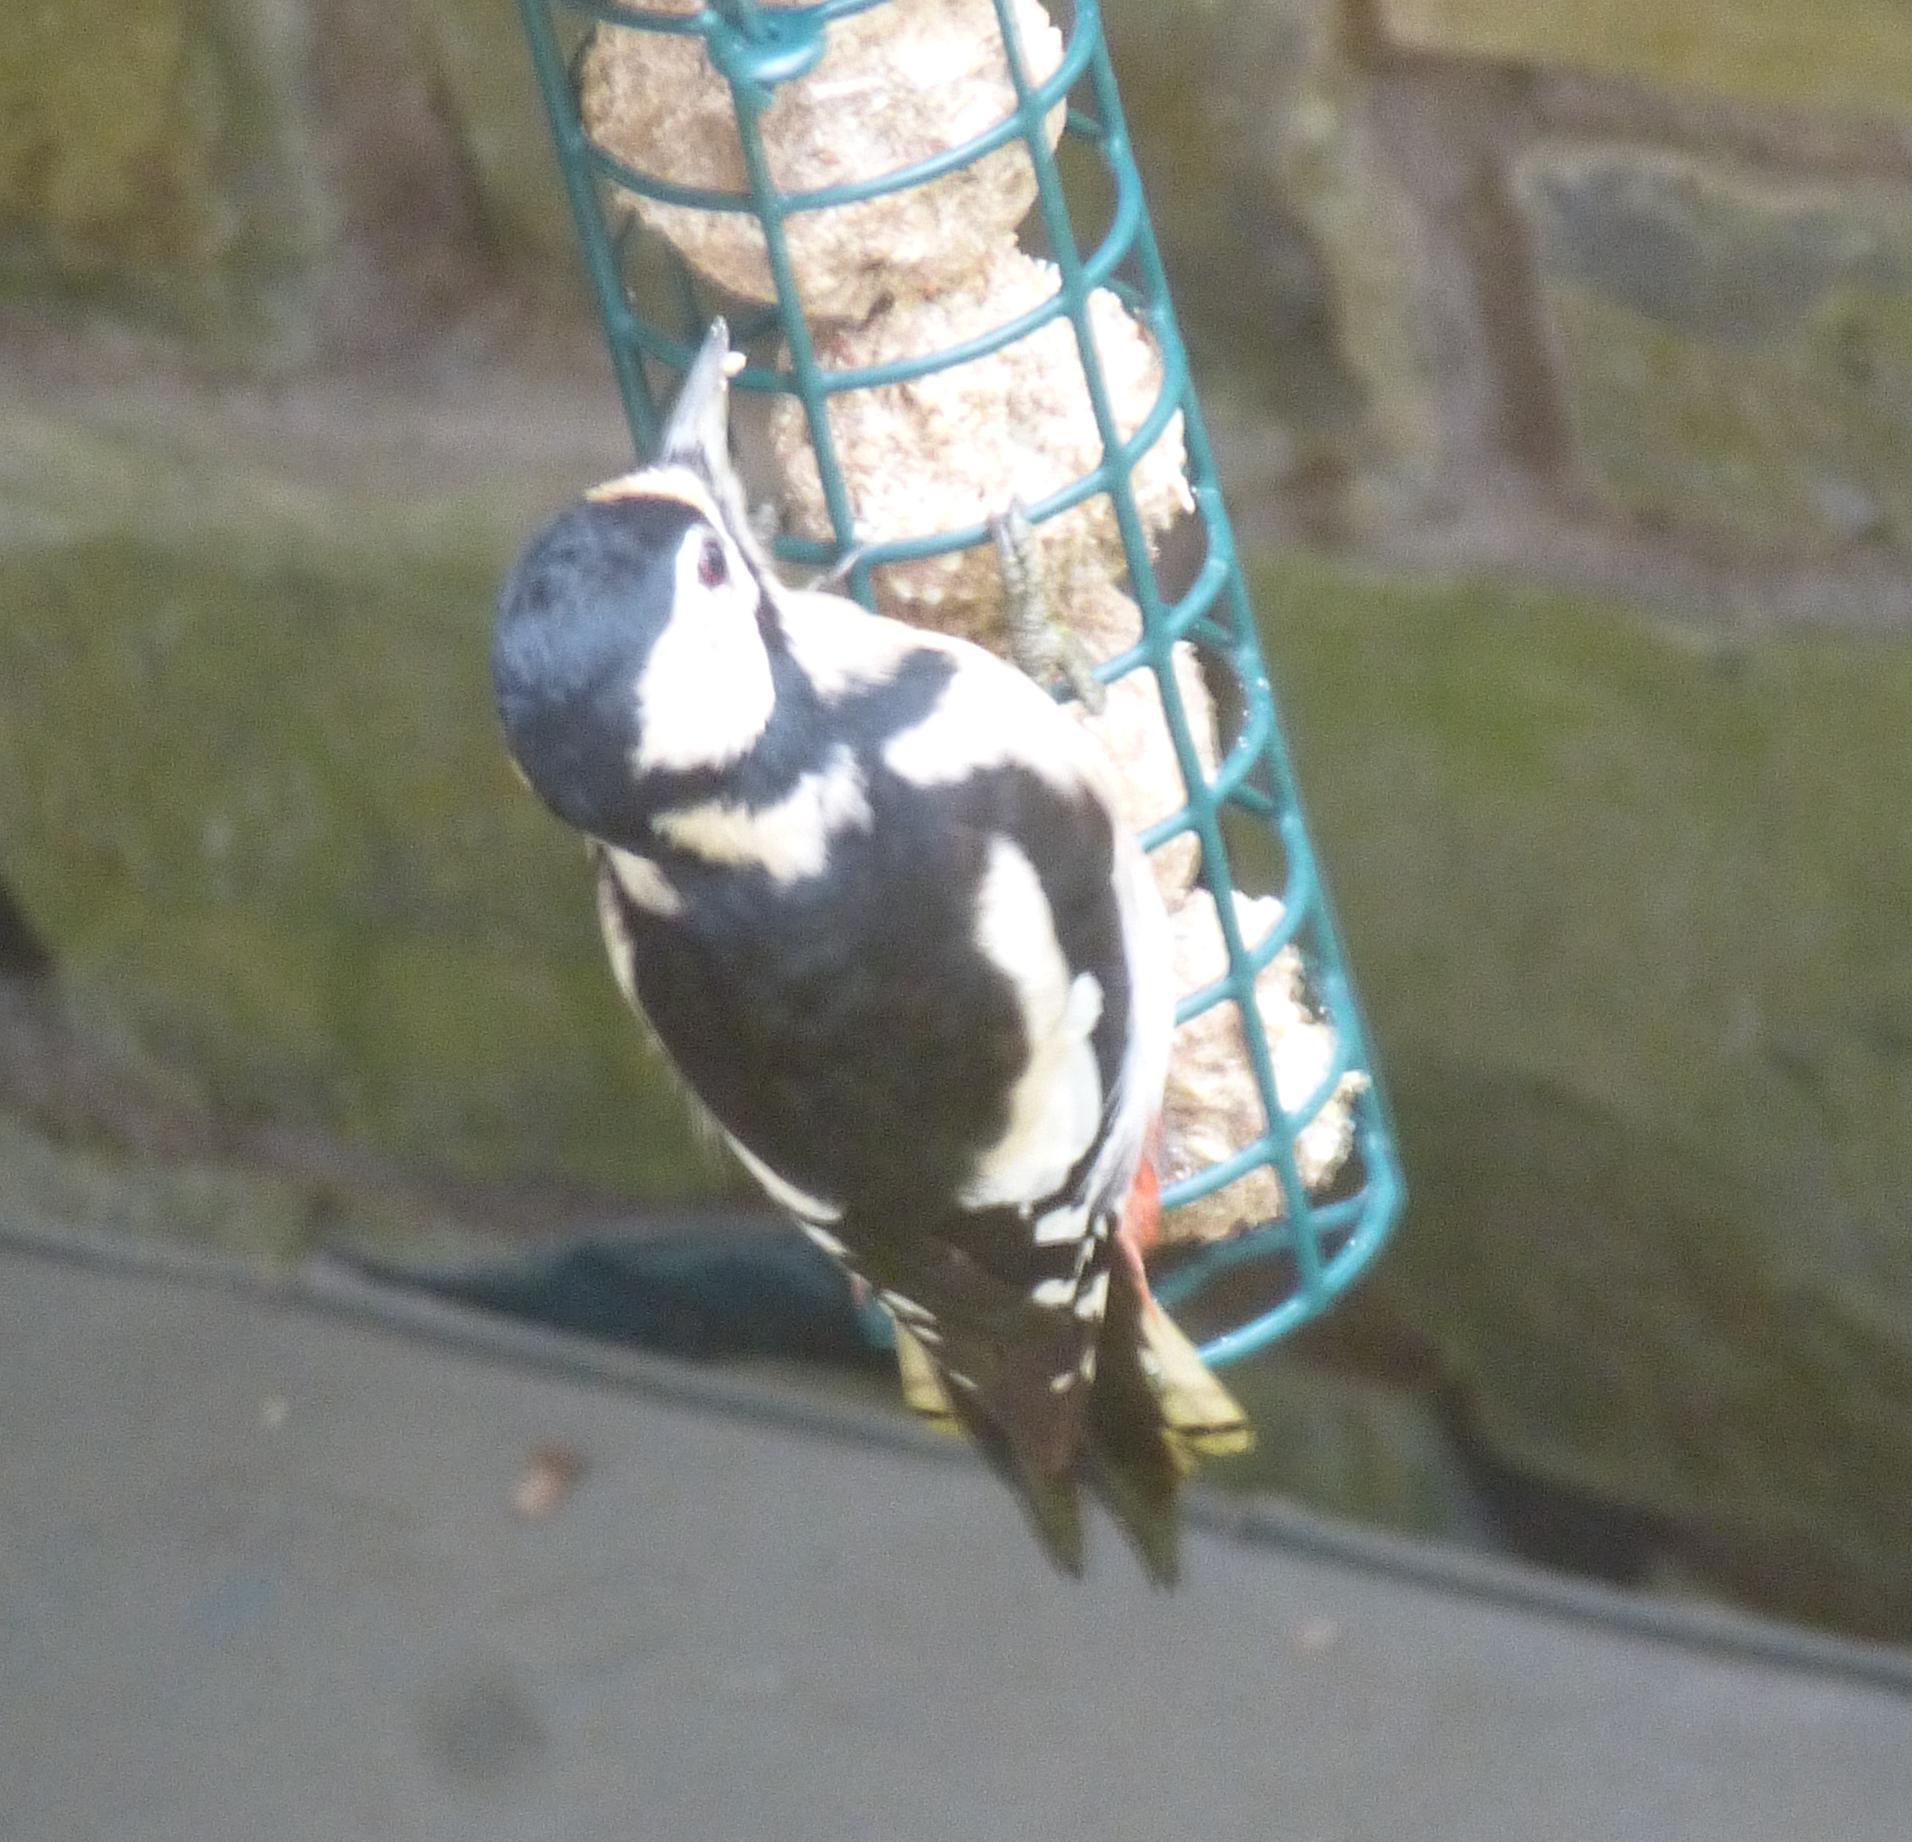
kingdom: Animalia
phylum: Chordata
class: Aves
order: Piciformes
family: Picidae
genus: Dendrocopos
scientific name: Dendrocopos major
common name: Great spotted woodpecker
